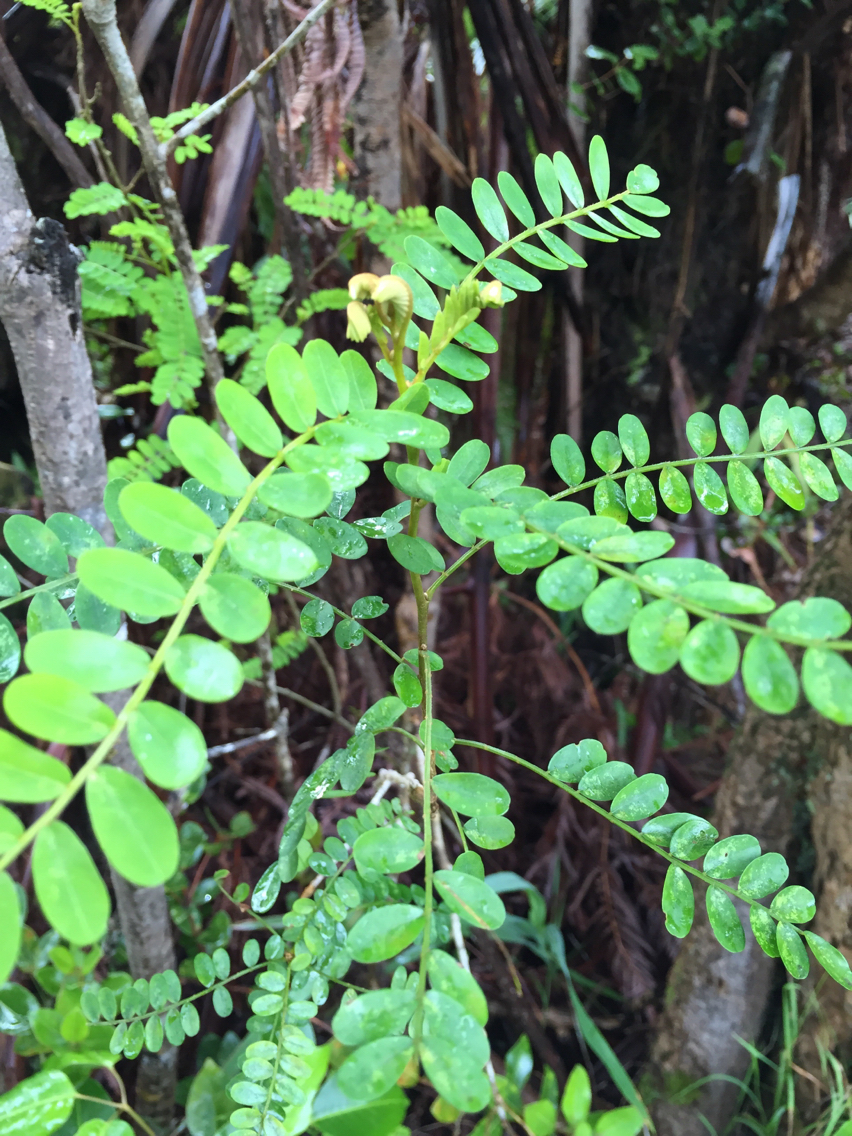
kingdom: Plantae
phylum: Tracheophyta
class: Magnoliopsida
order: Fabales
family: Fabaceae
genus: Sophora
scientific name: Sophora chrysophylla
